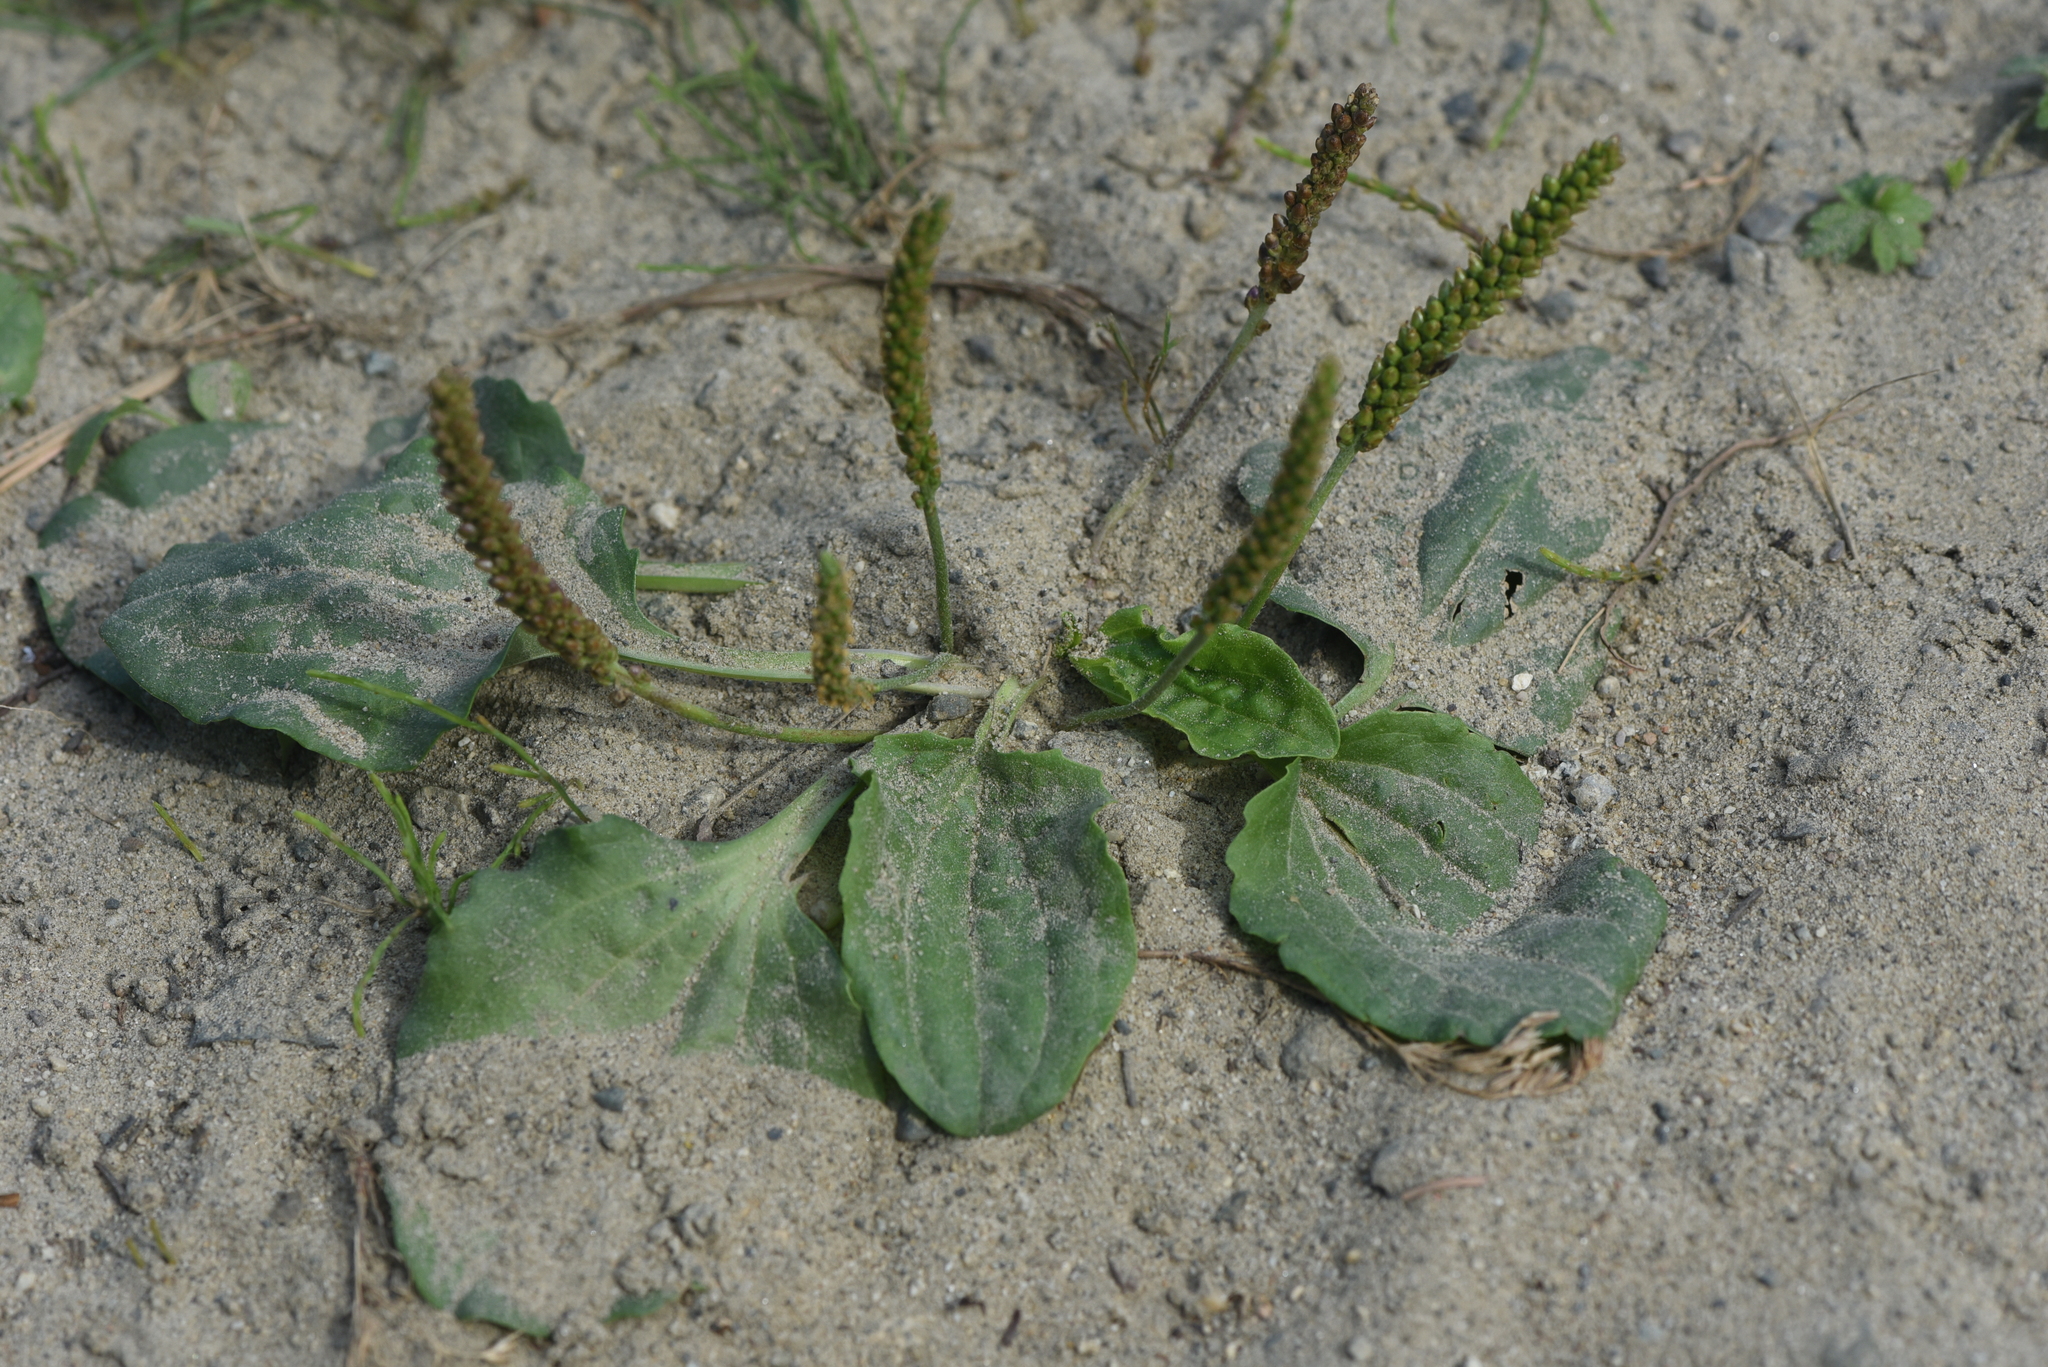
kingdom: Plantae
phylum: Tracheophyta
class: Magnoliopsida
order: Lamiales
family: Plantaginaceae
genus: Plantago
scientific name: Plantago major
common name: Common plantain
